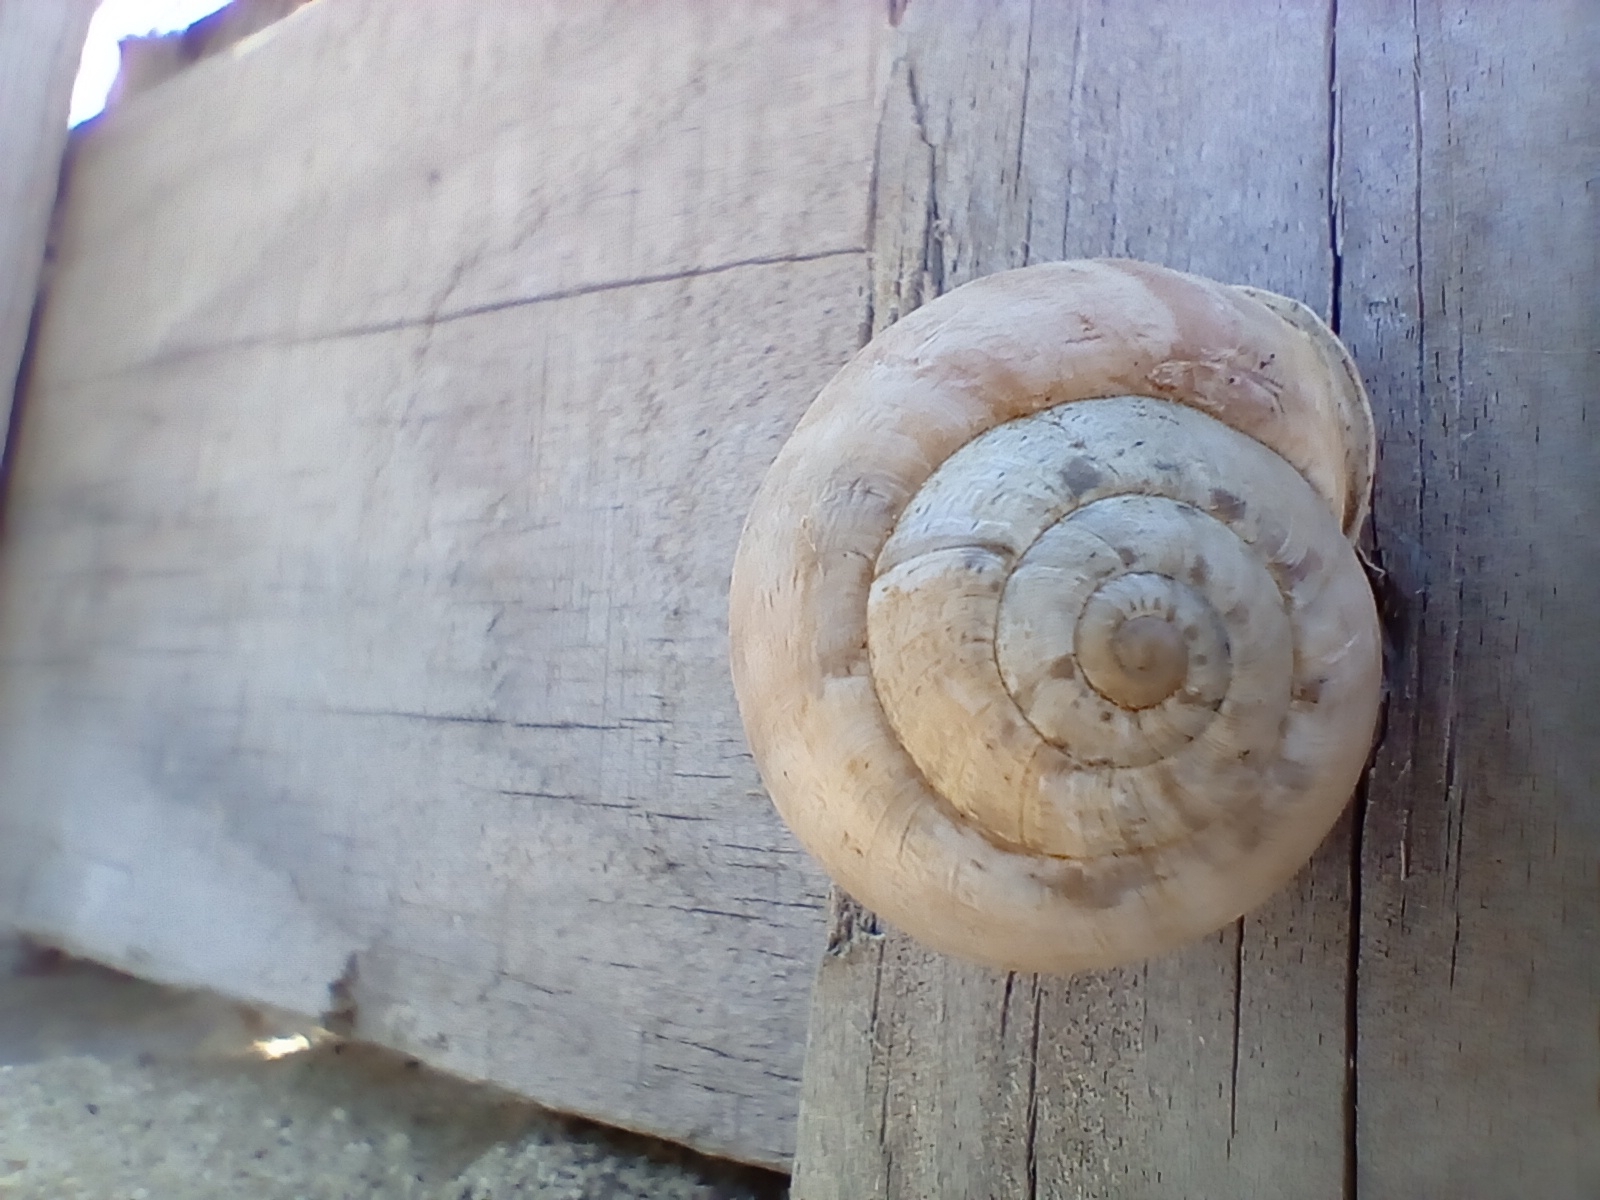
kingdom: Animalia
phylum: Mollusca
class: Gastropoda
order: Stylommatophora
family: Helicidae
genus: Eobania
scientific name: Eobania vermiculata
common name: Chocolateband snail
